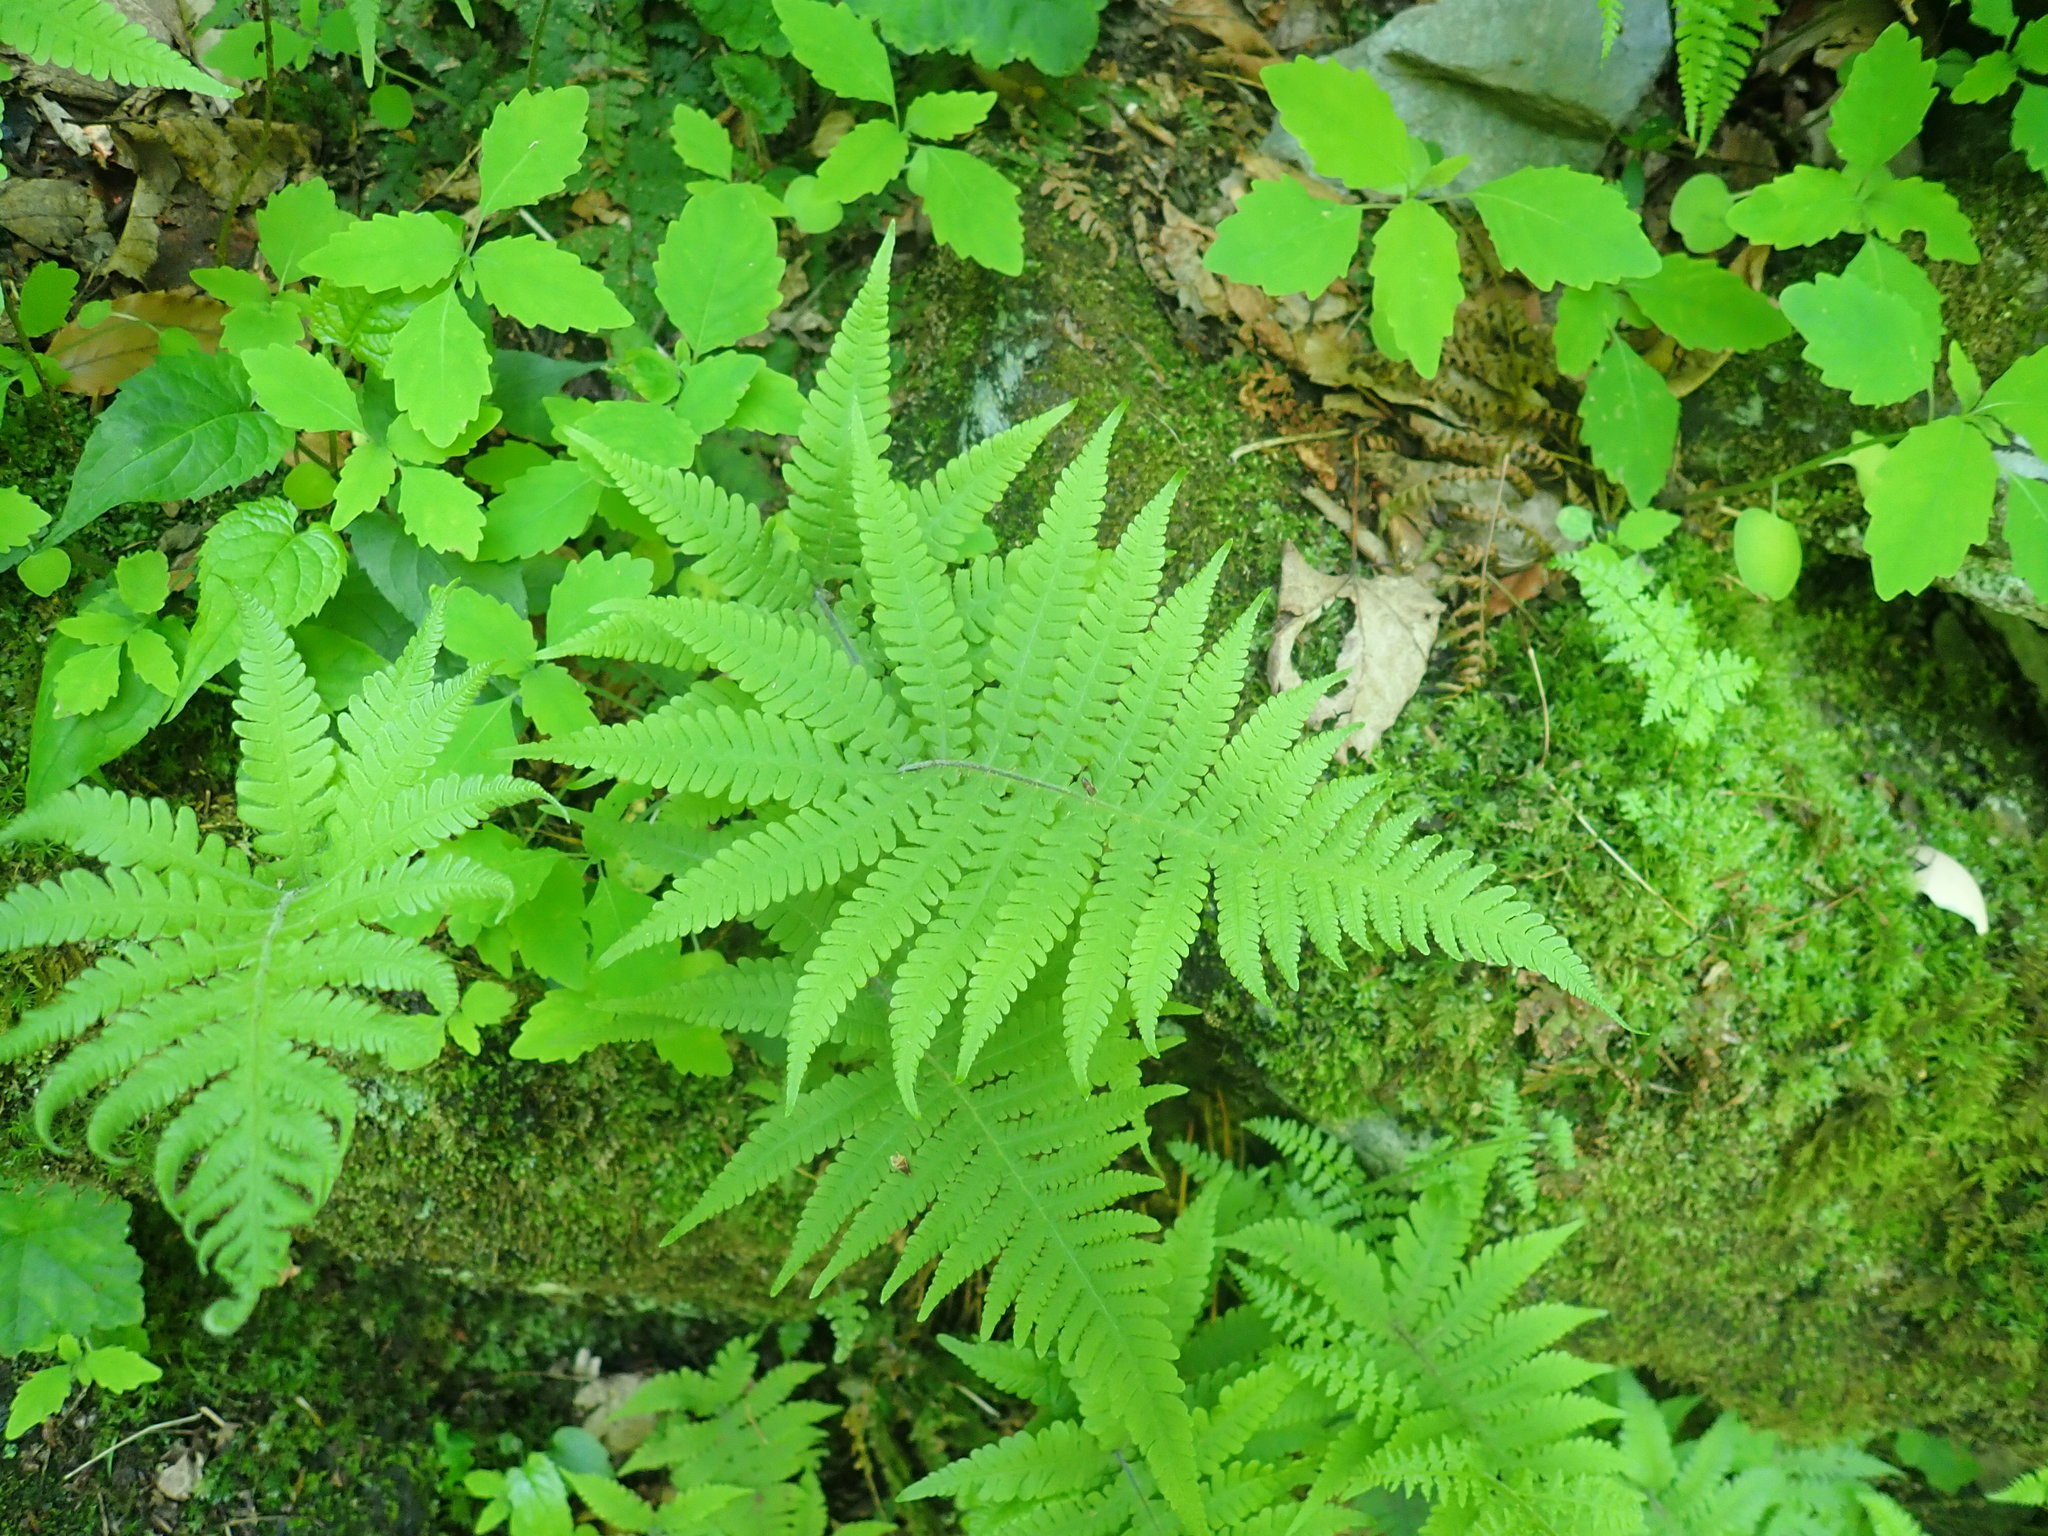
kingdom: Plantae
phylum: Tracheophyta
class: Polypodiopsida
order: Polypodiales
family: Thelypteridaceae
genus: Phegopteris
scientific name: Phegopteris connectilis
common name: Beech fern
